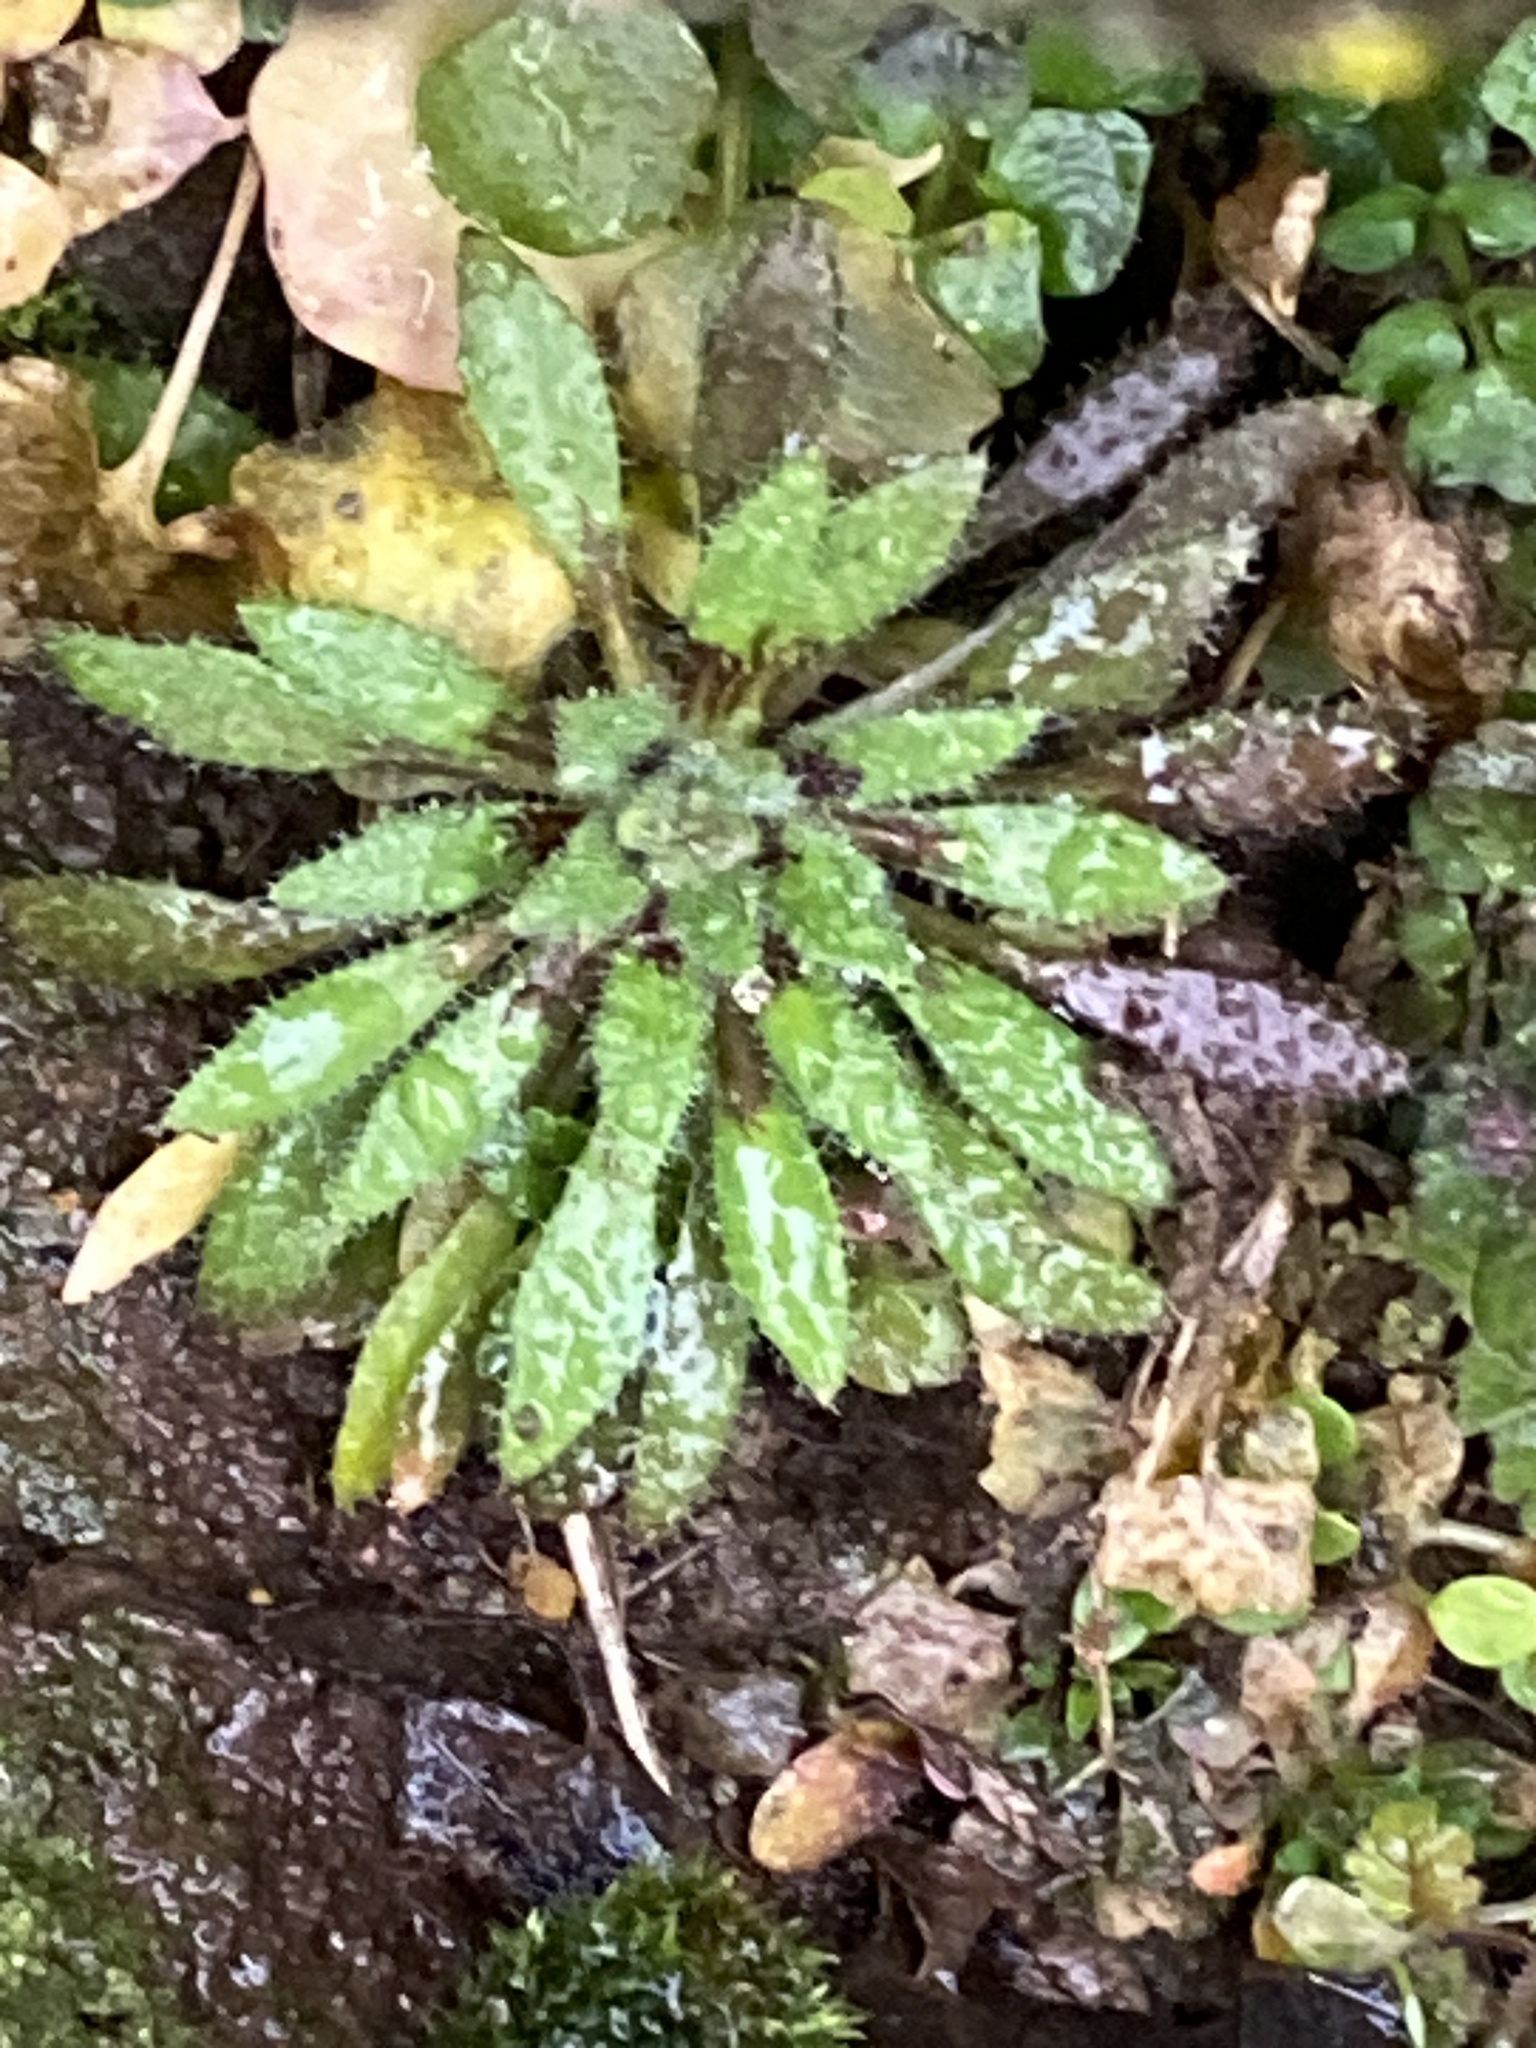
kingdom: Plantae
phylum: Tracheophyta
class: Magnoliopsida
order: Brassicales
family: Brassicaceae
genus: Draba
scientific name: Draba verna
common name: Spring draba
